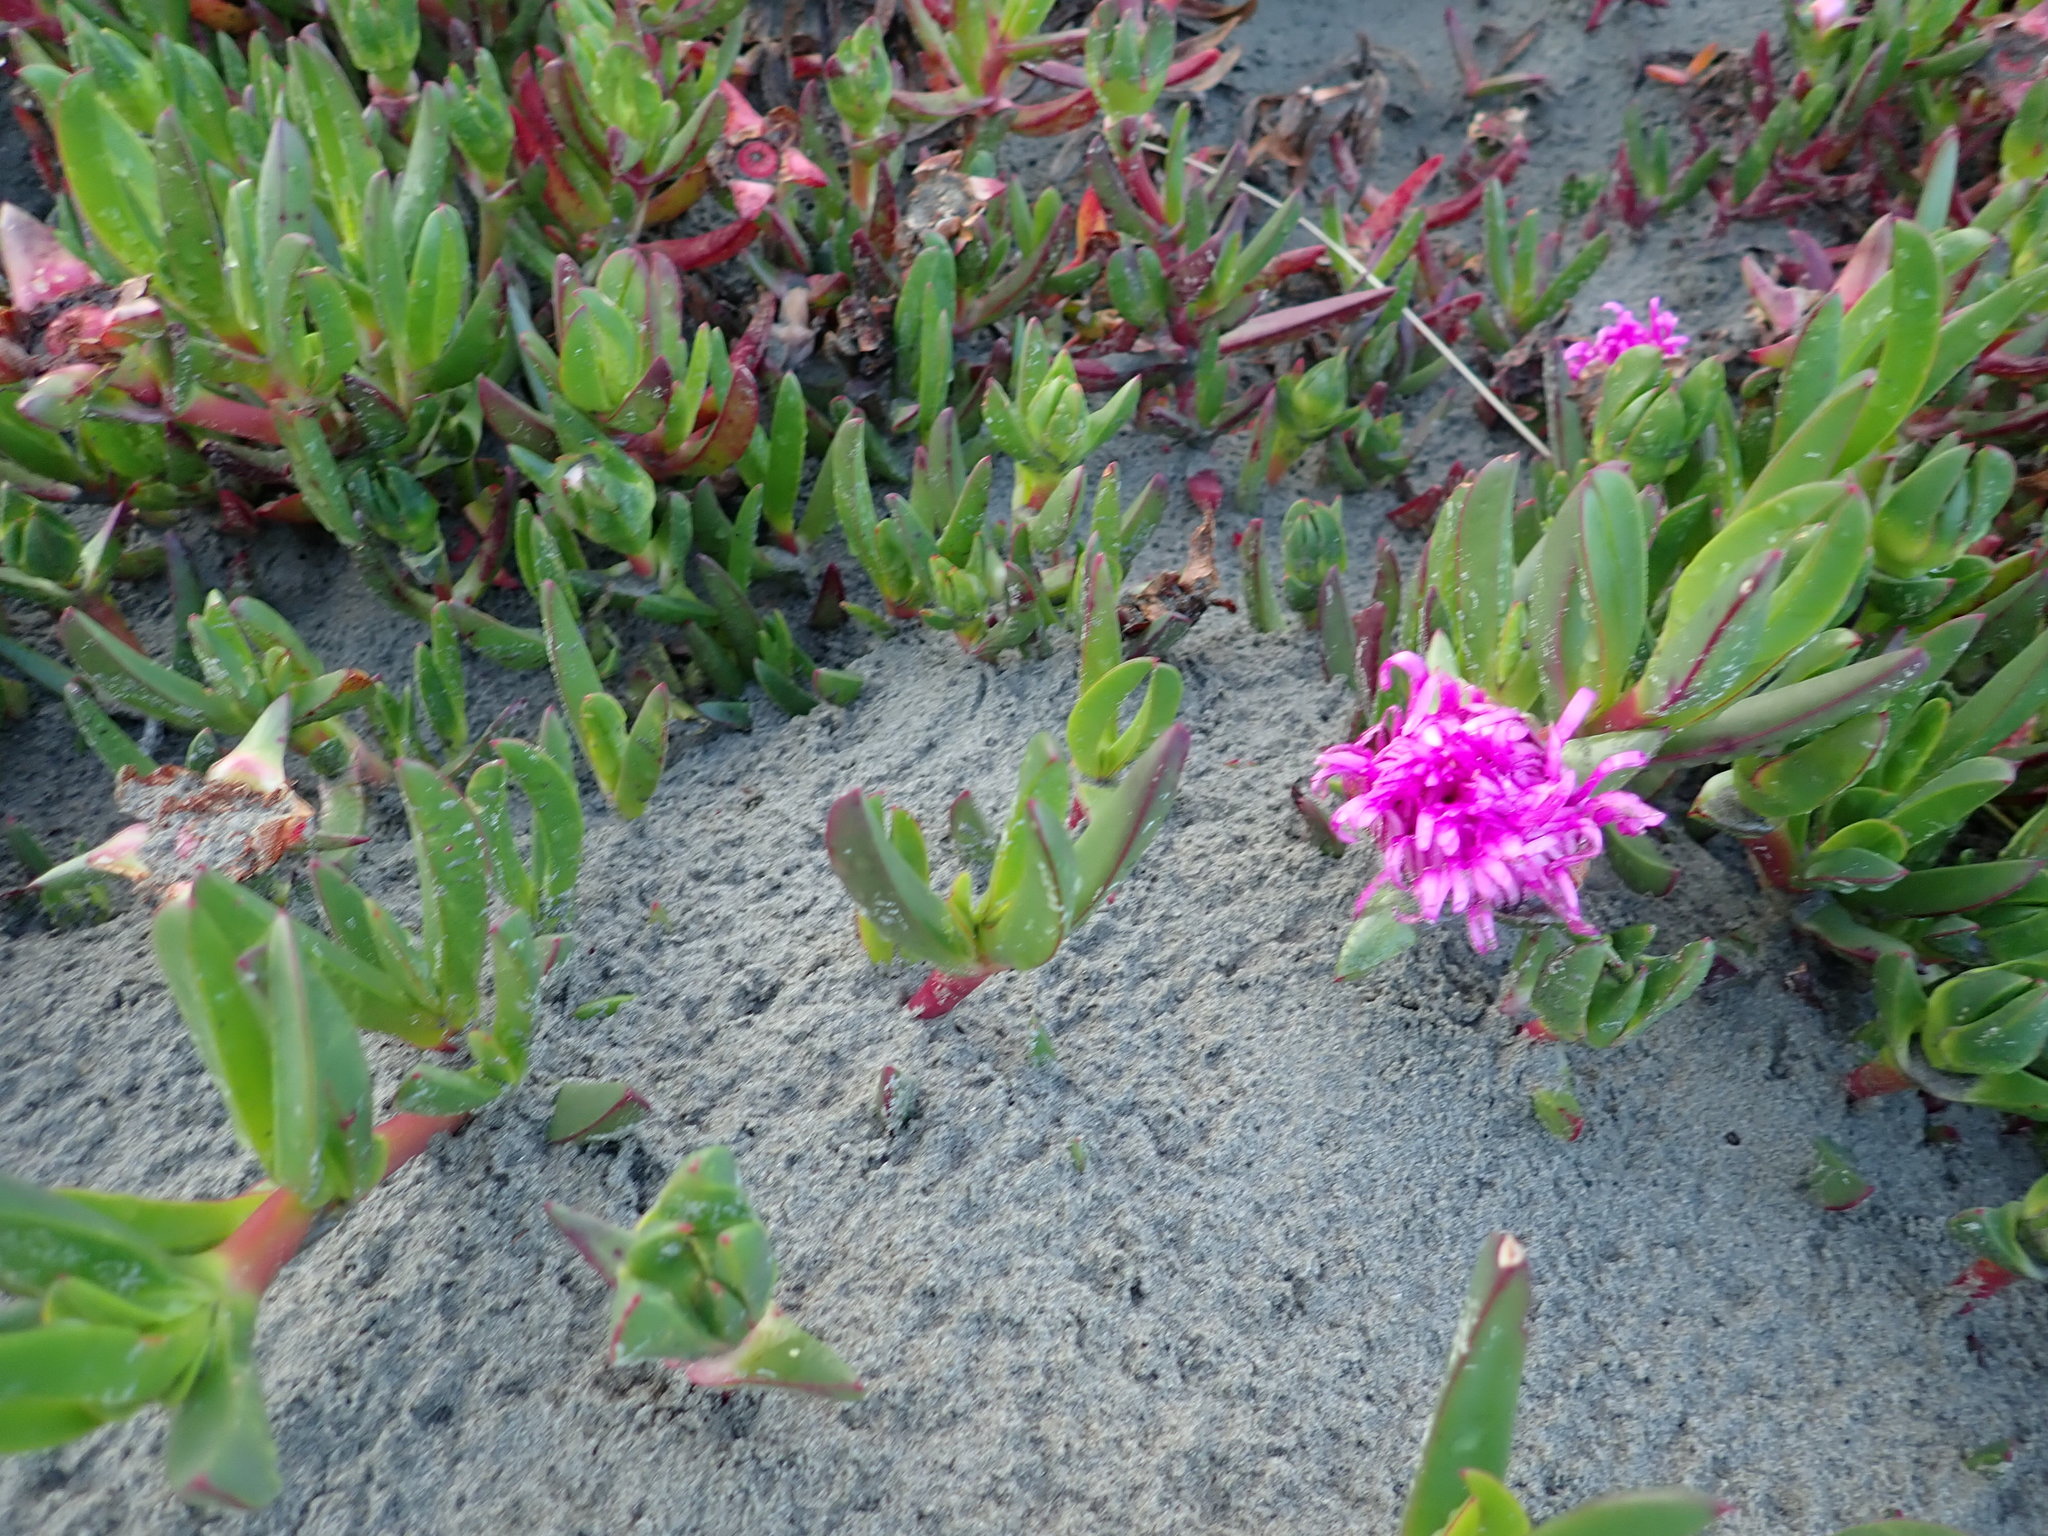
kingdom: Plantae
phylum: Tracheophyta
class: Magnoliopsida
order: Caryophyllales
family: Aizoaceae
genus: Carpobrotus
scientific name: Carpobrotus chilensis
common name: Sea fig
